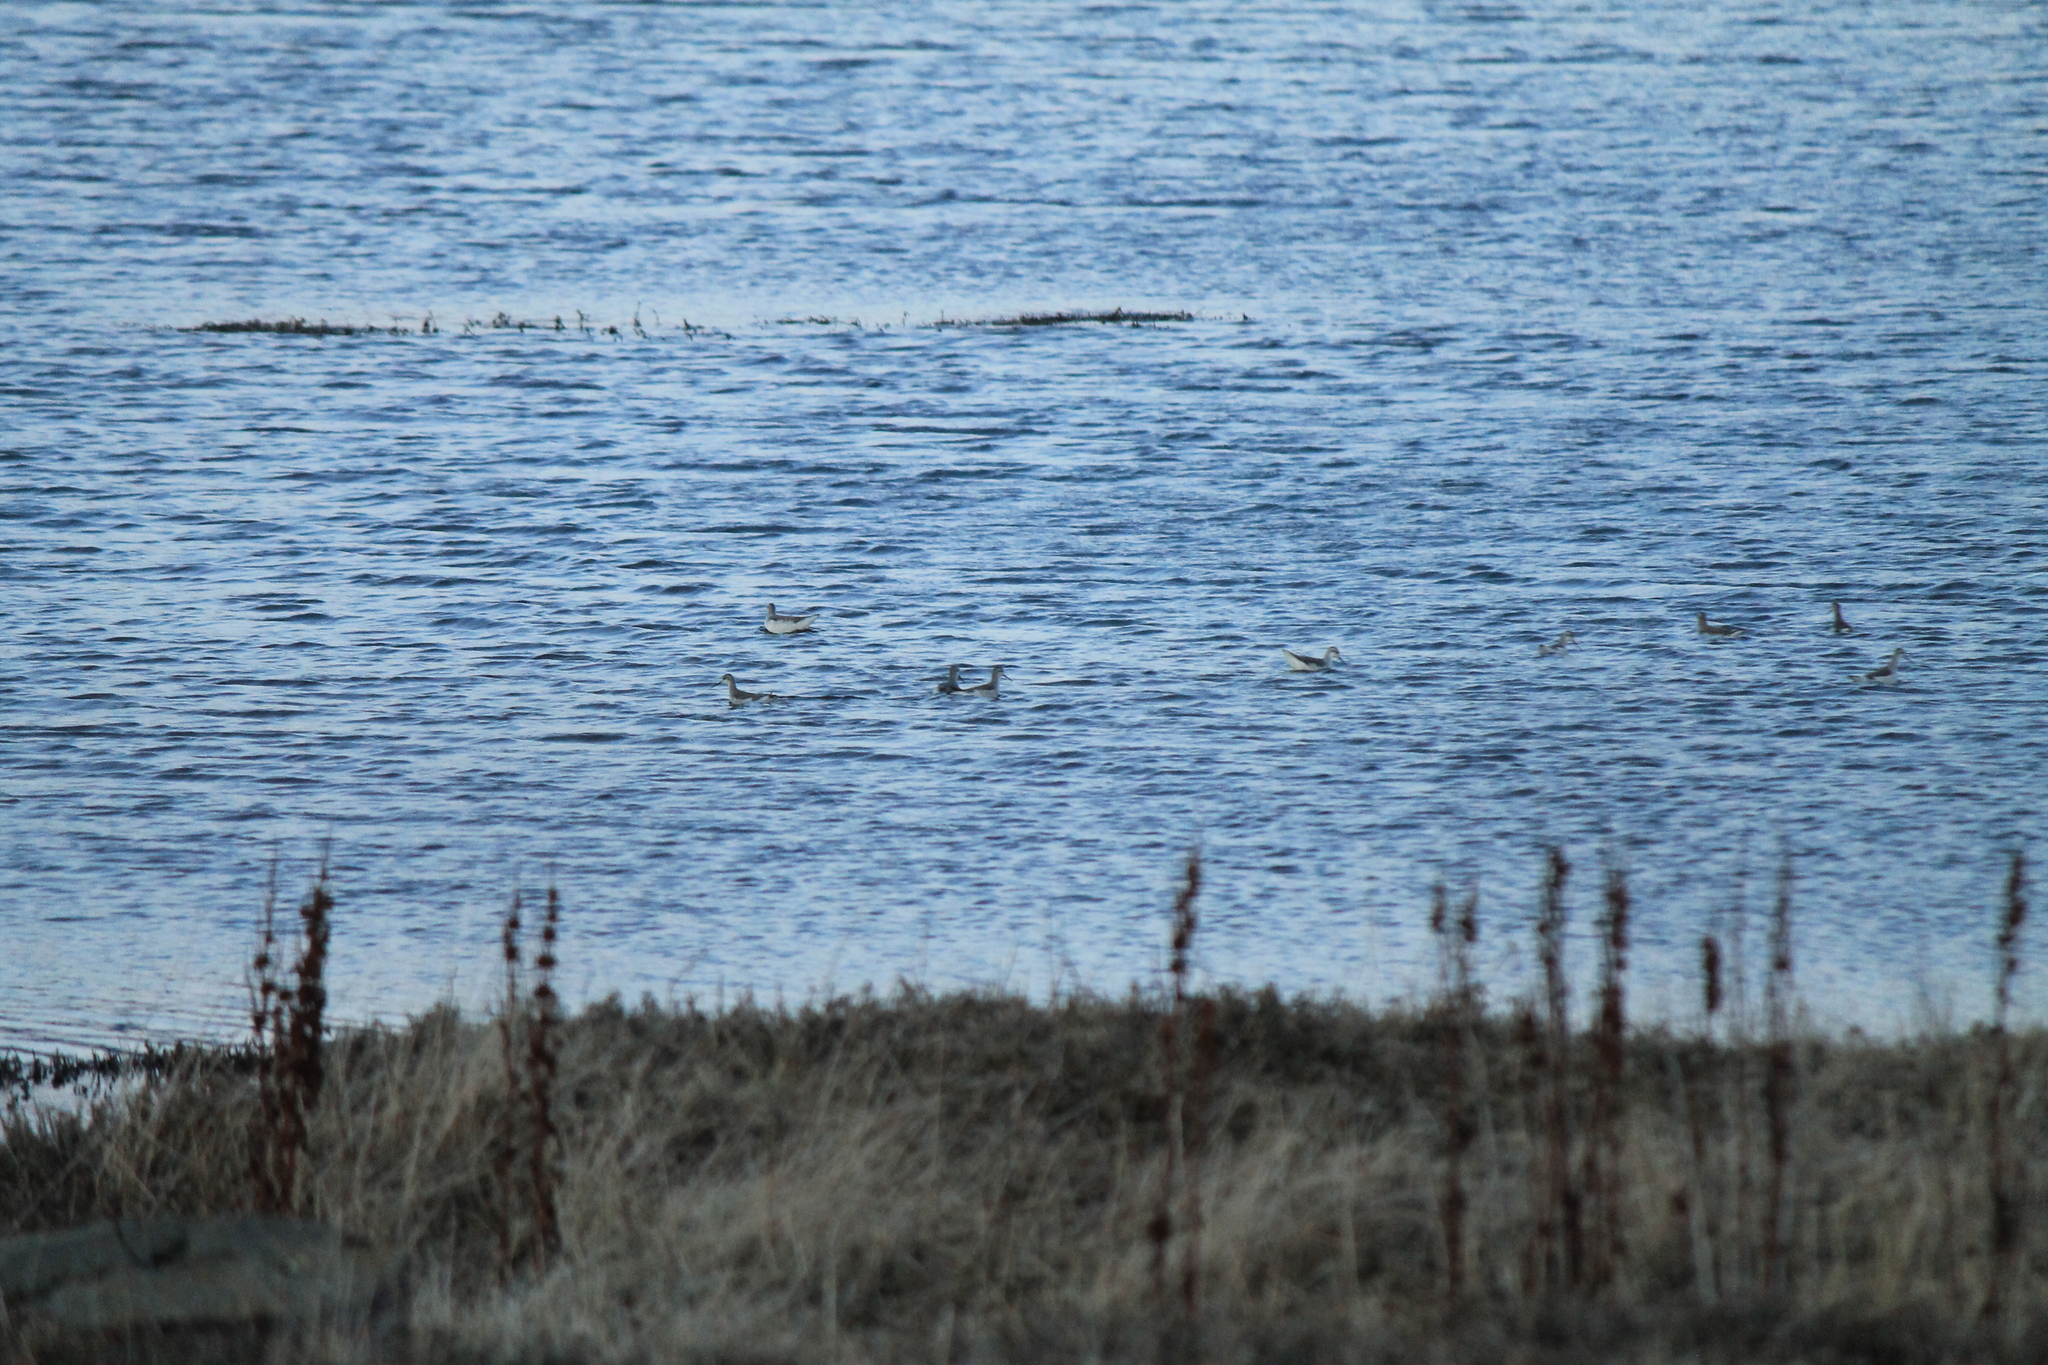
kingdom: Animalia
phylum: Chordata
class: Aves
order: Charadriiformes
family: Scolopacidae
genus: Phalaropus
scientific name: Phalaropus tricolor
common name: Wilson's phalarope
